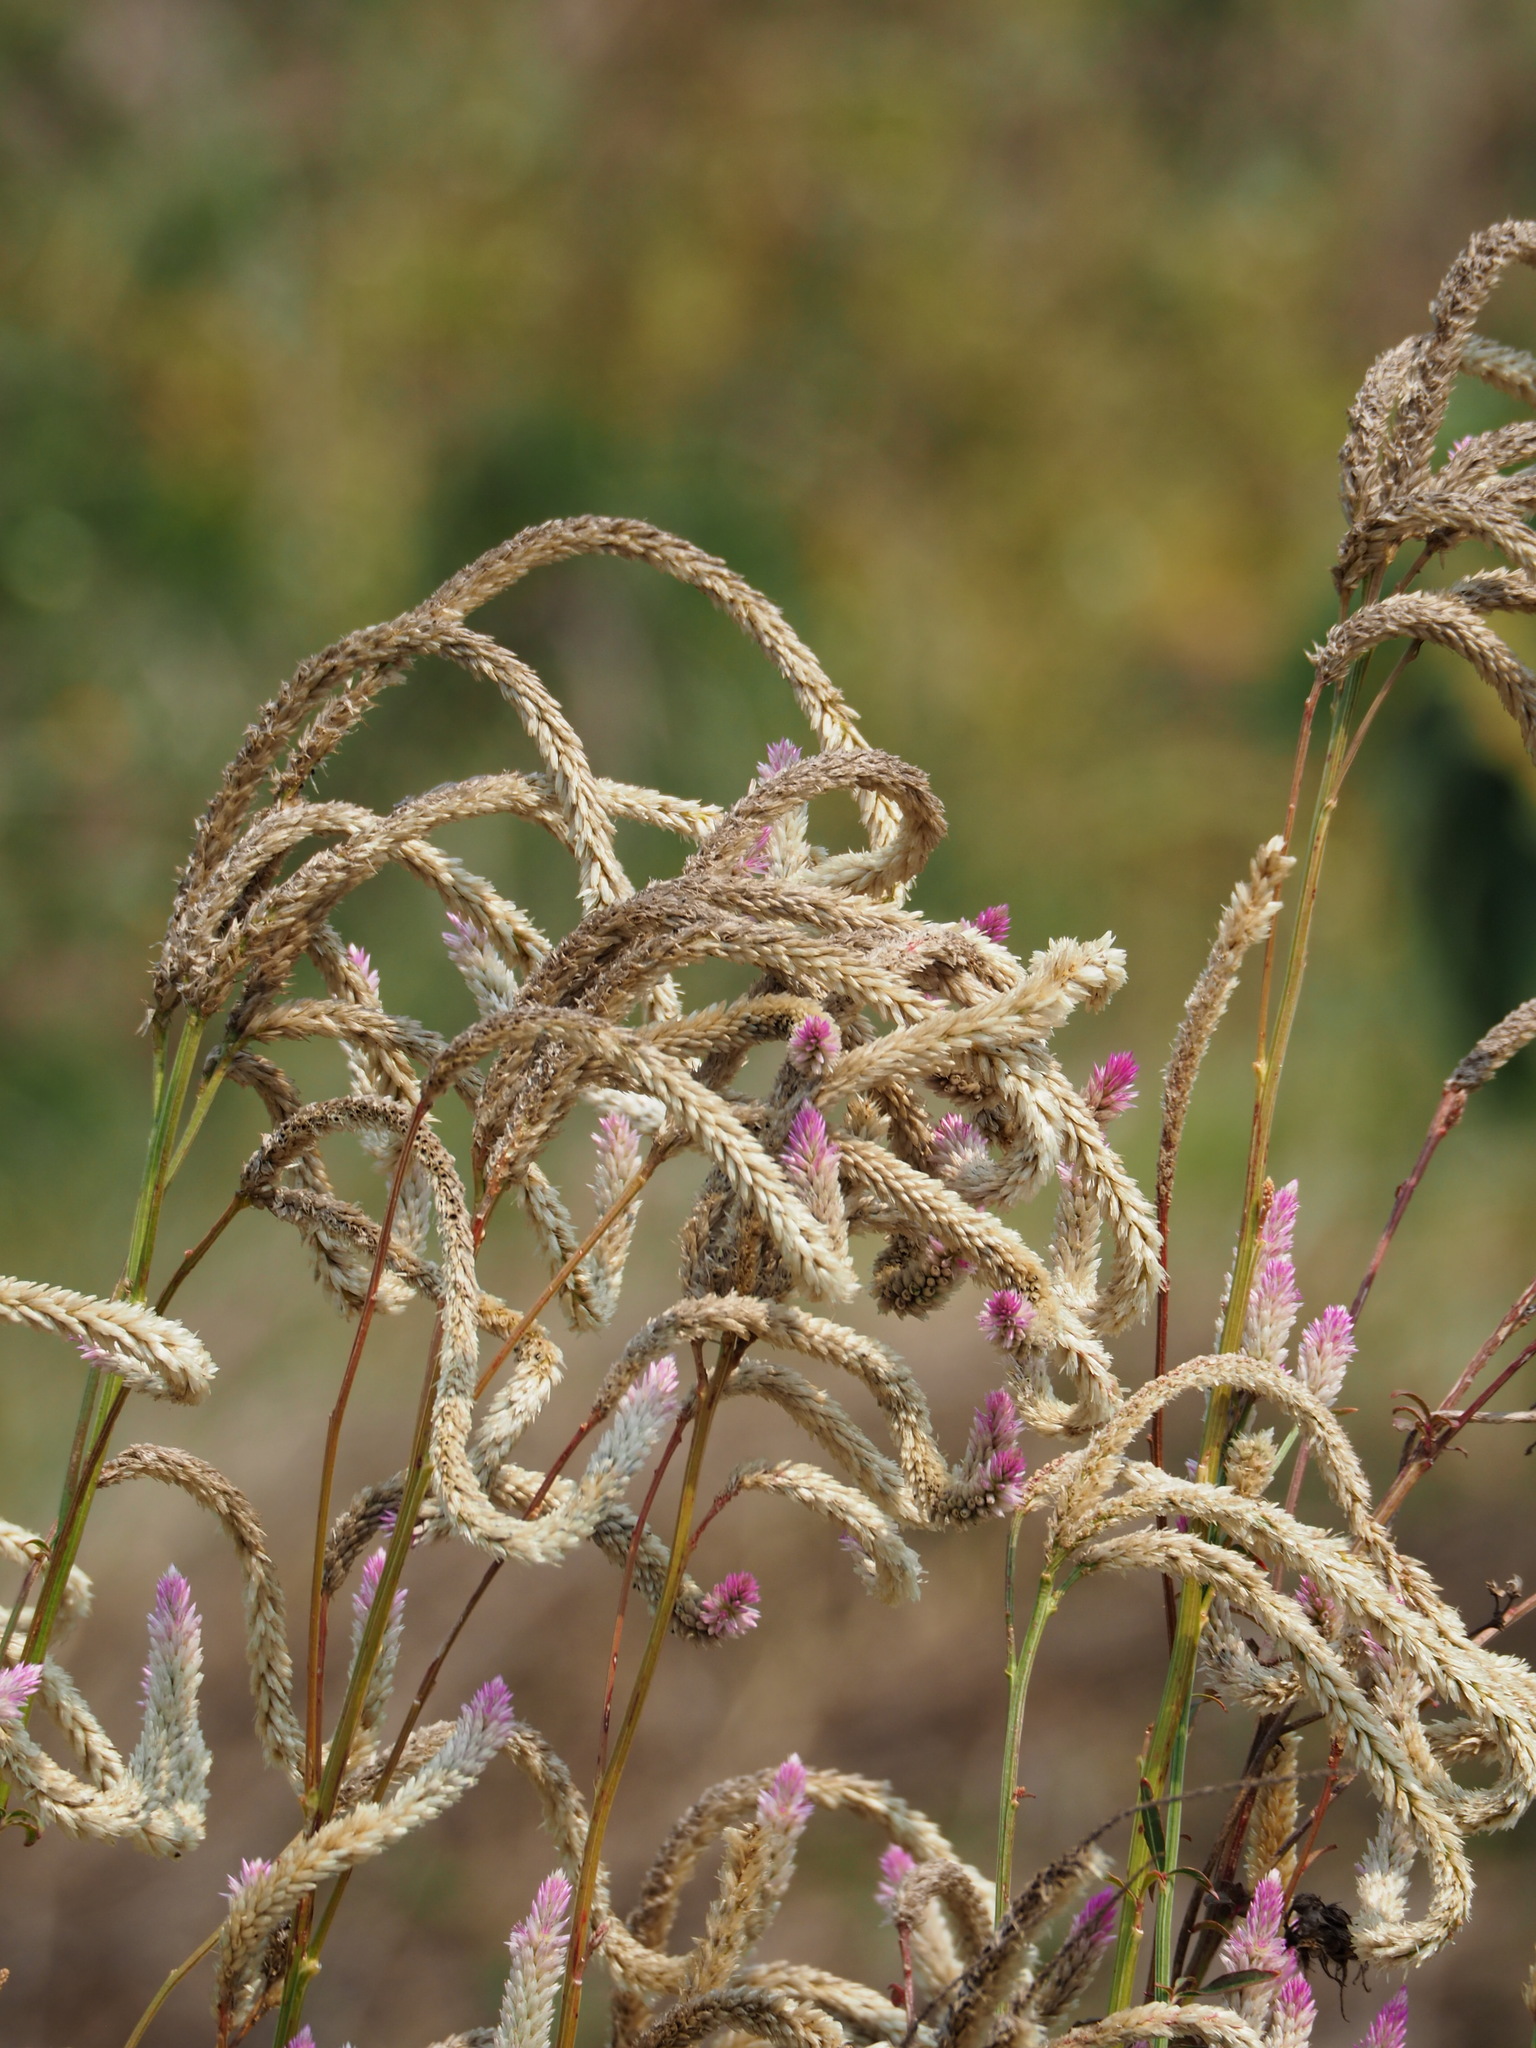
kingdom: Plantae
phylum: Tracheophyta
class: Magnoliopsida
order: Caryophyllales
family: Amaranthaceae
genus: Celosia
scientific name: Celosia argentea
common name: Feather cockscomb
